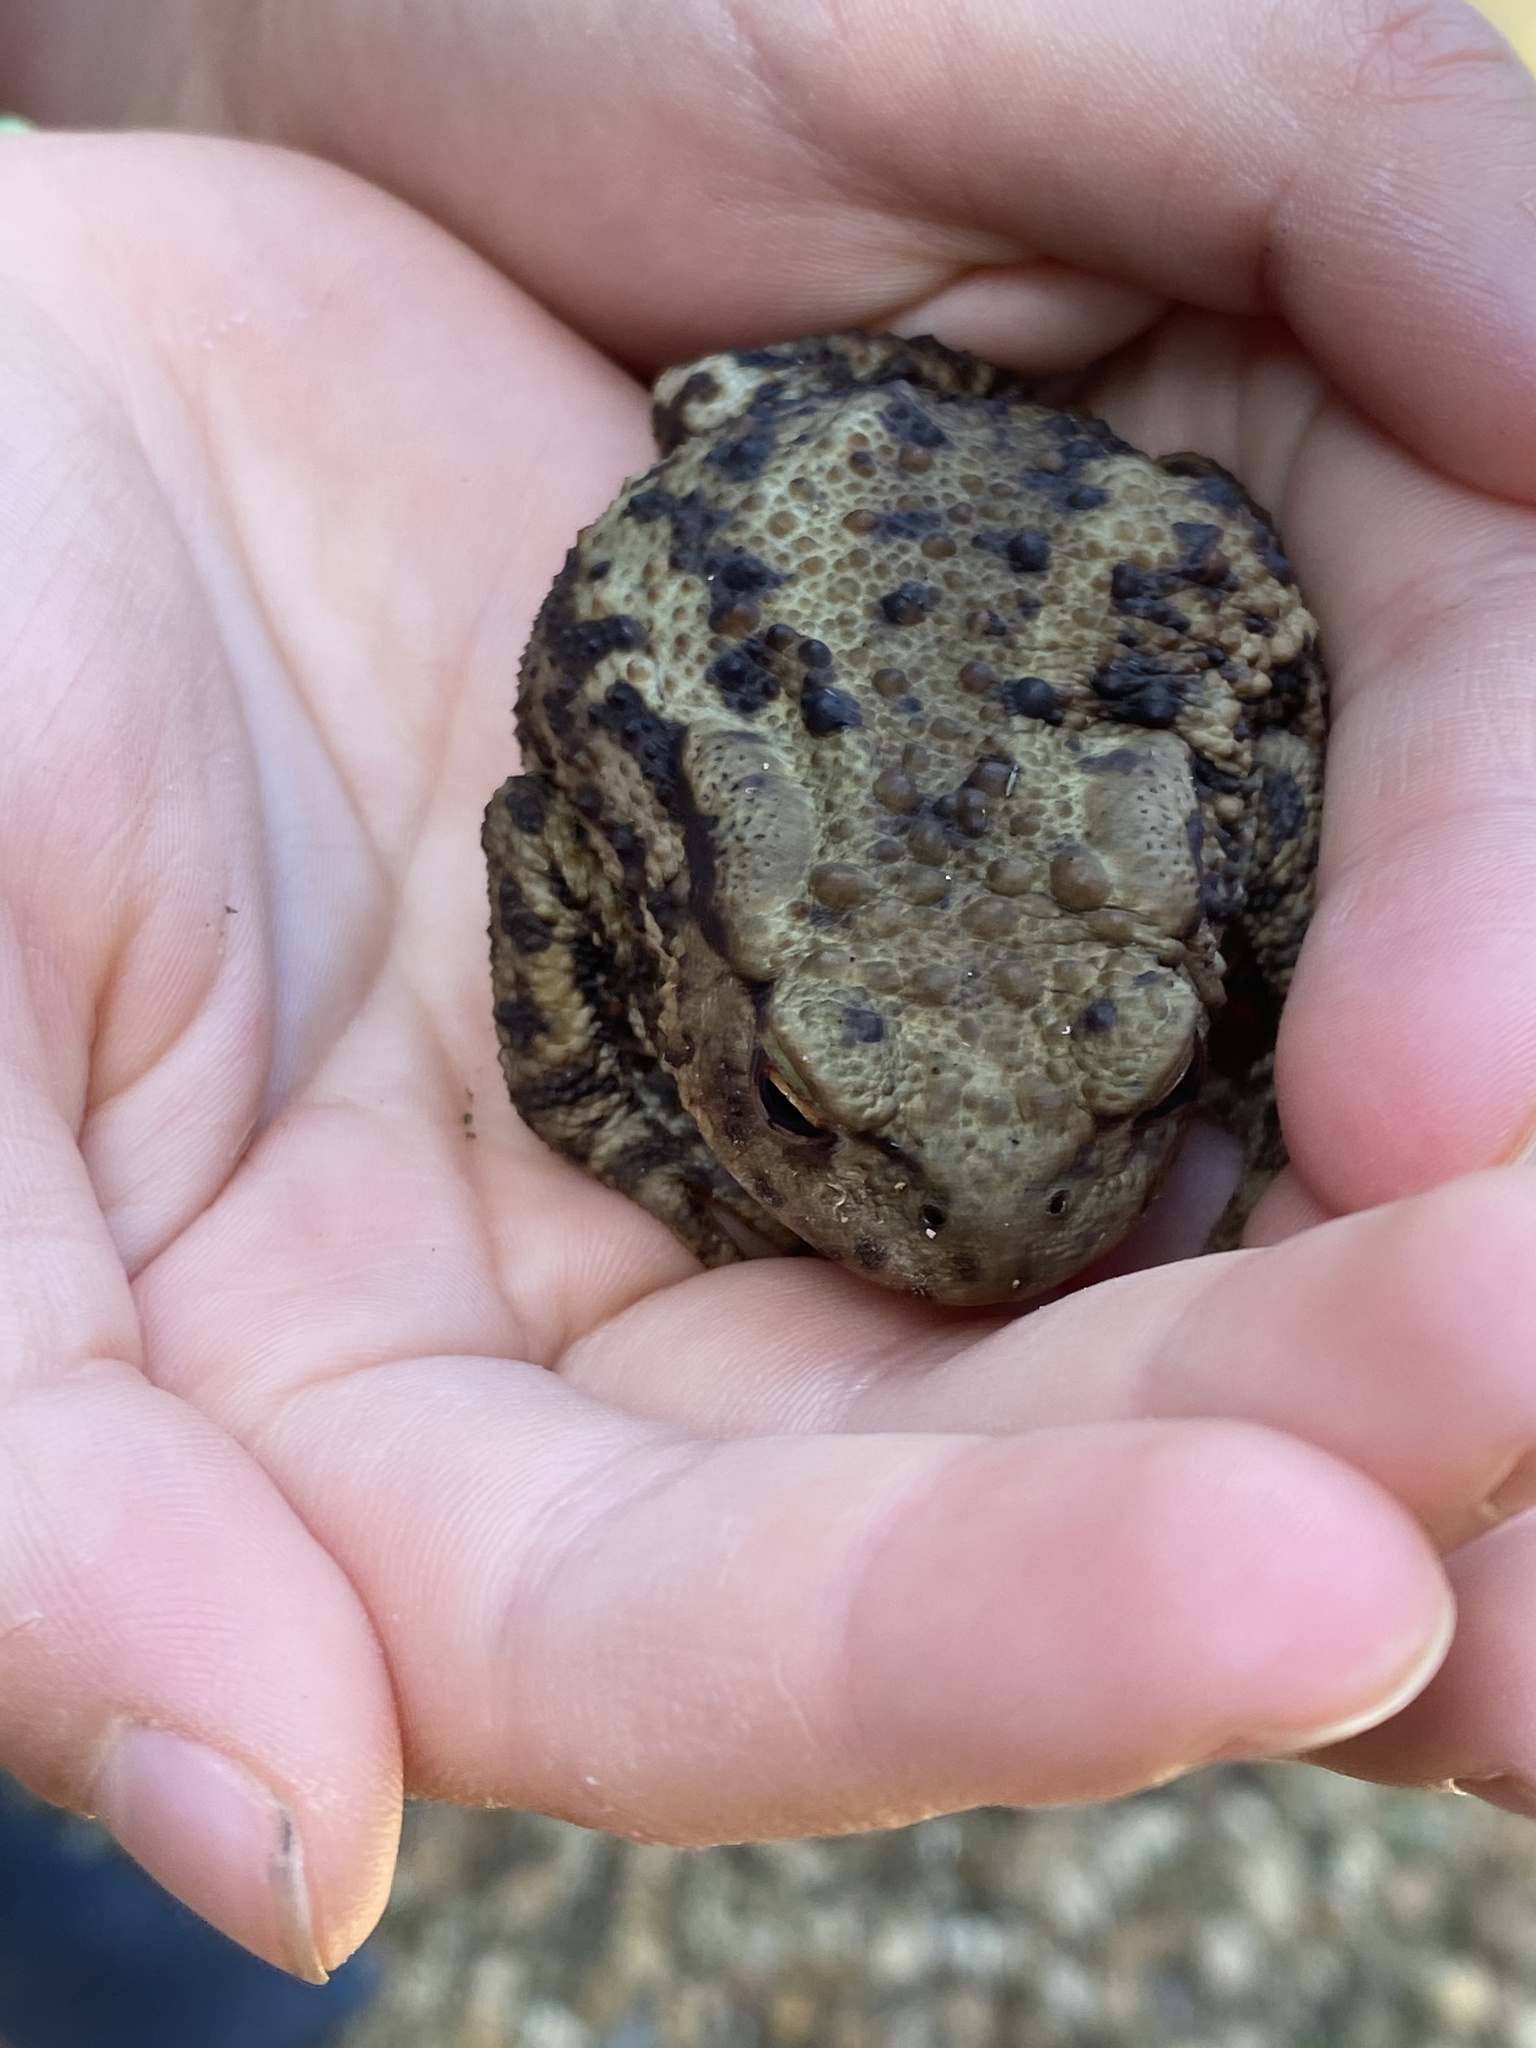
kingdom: Animalia
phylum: Chordata
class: Amphibia
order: Anura
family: Bufonidae
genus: Bufo
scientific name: Bufo bufo
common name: Common toad
